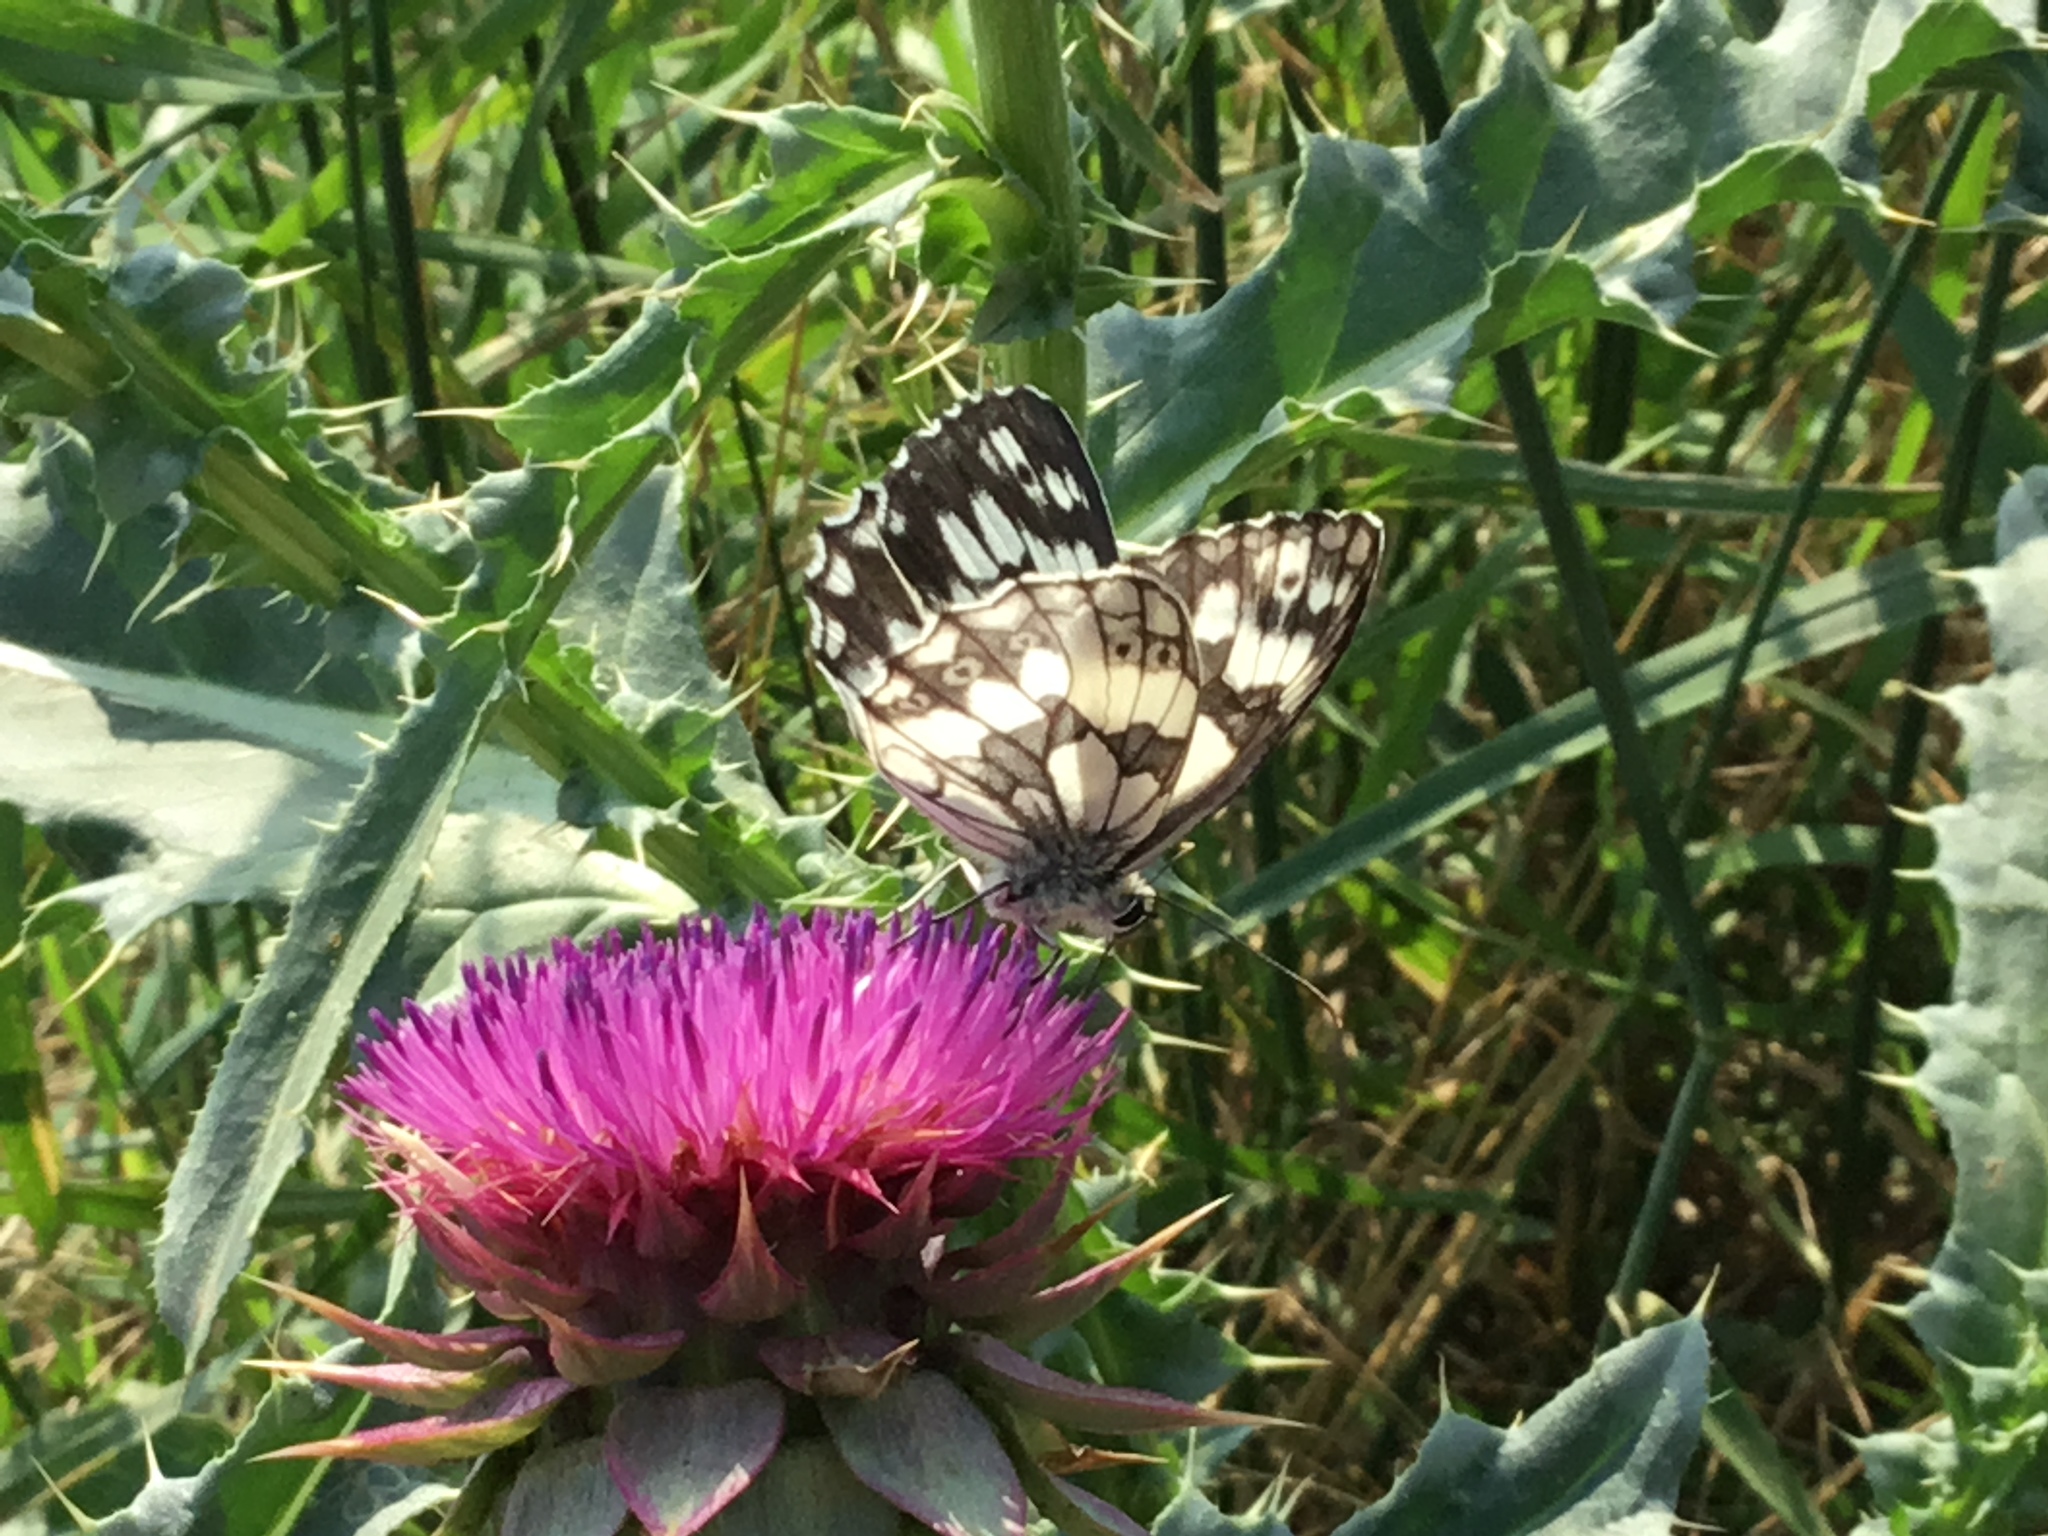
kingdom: Animalia
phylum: Arthropoda
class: Insecta
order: Lepidoptera
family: Nymphalidae
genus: Melanargia
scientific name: Melanargia galathea
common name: Marbled white
